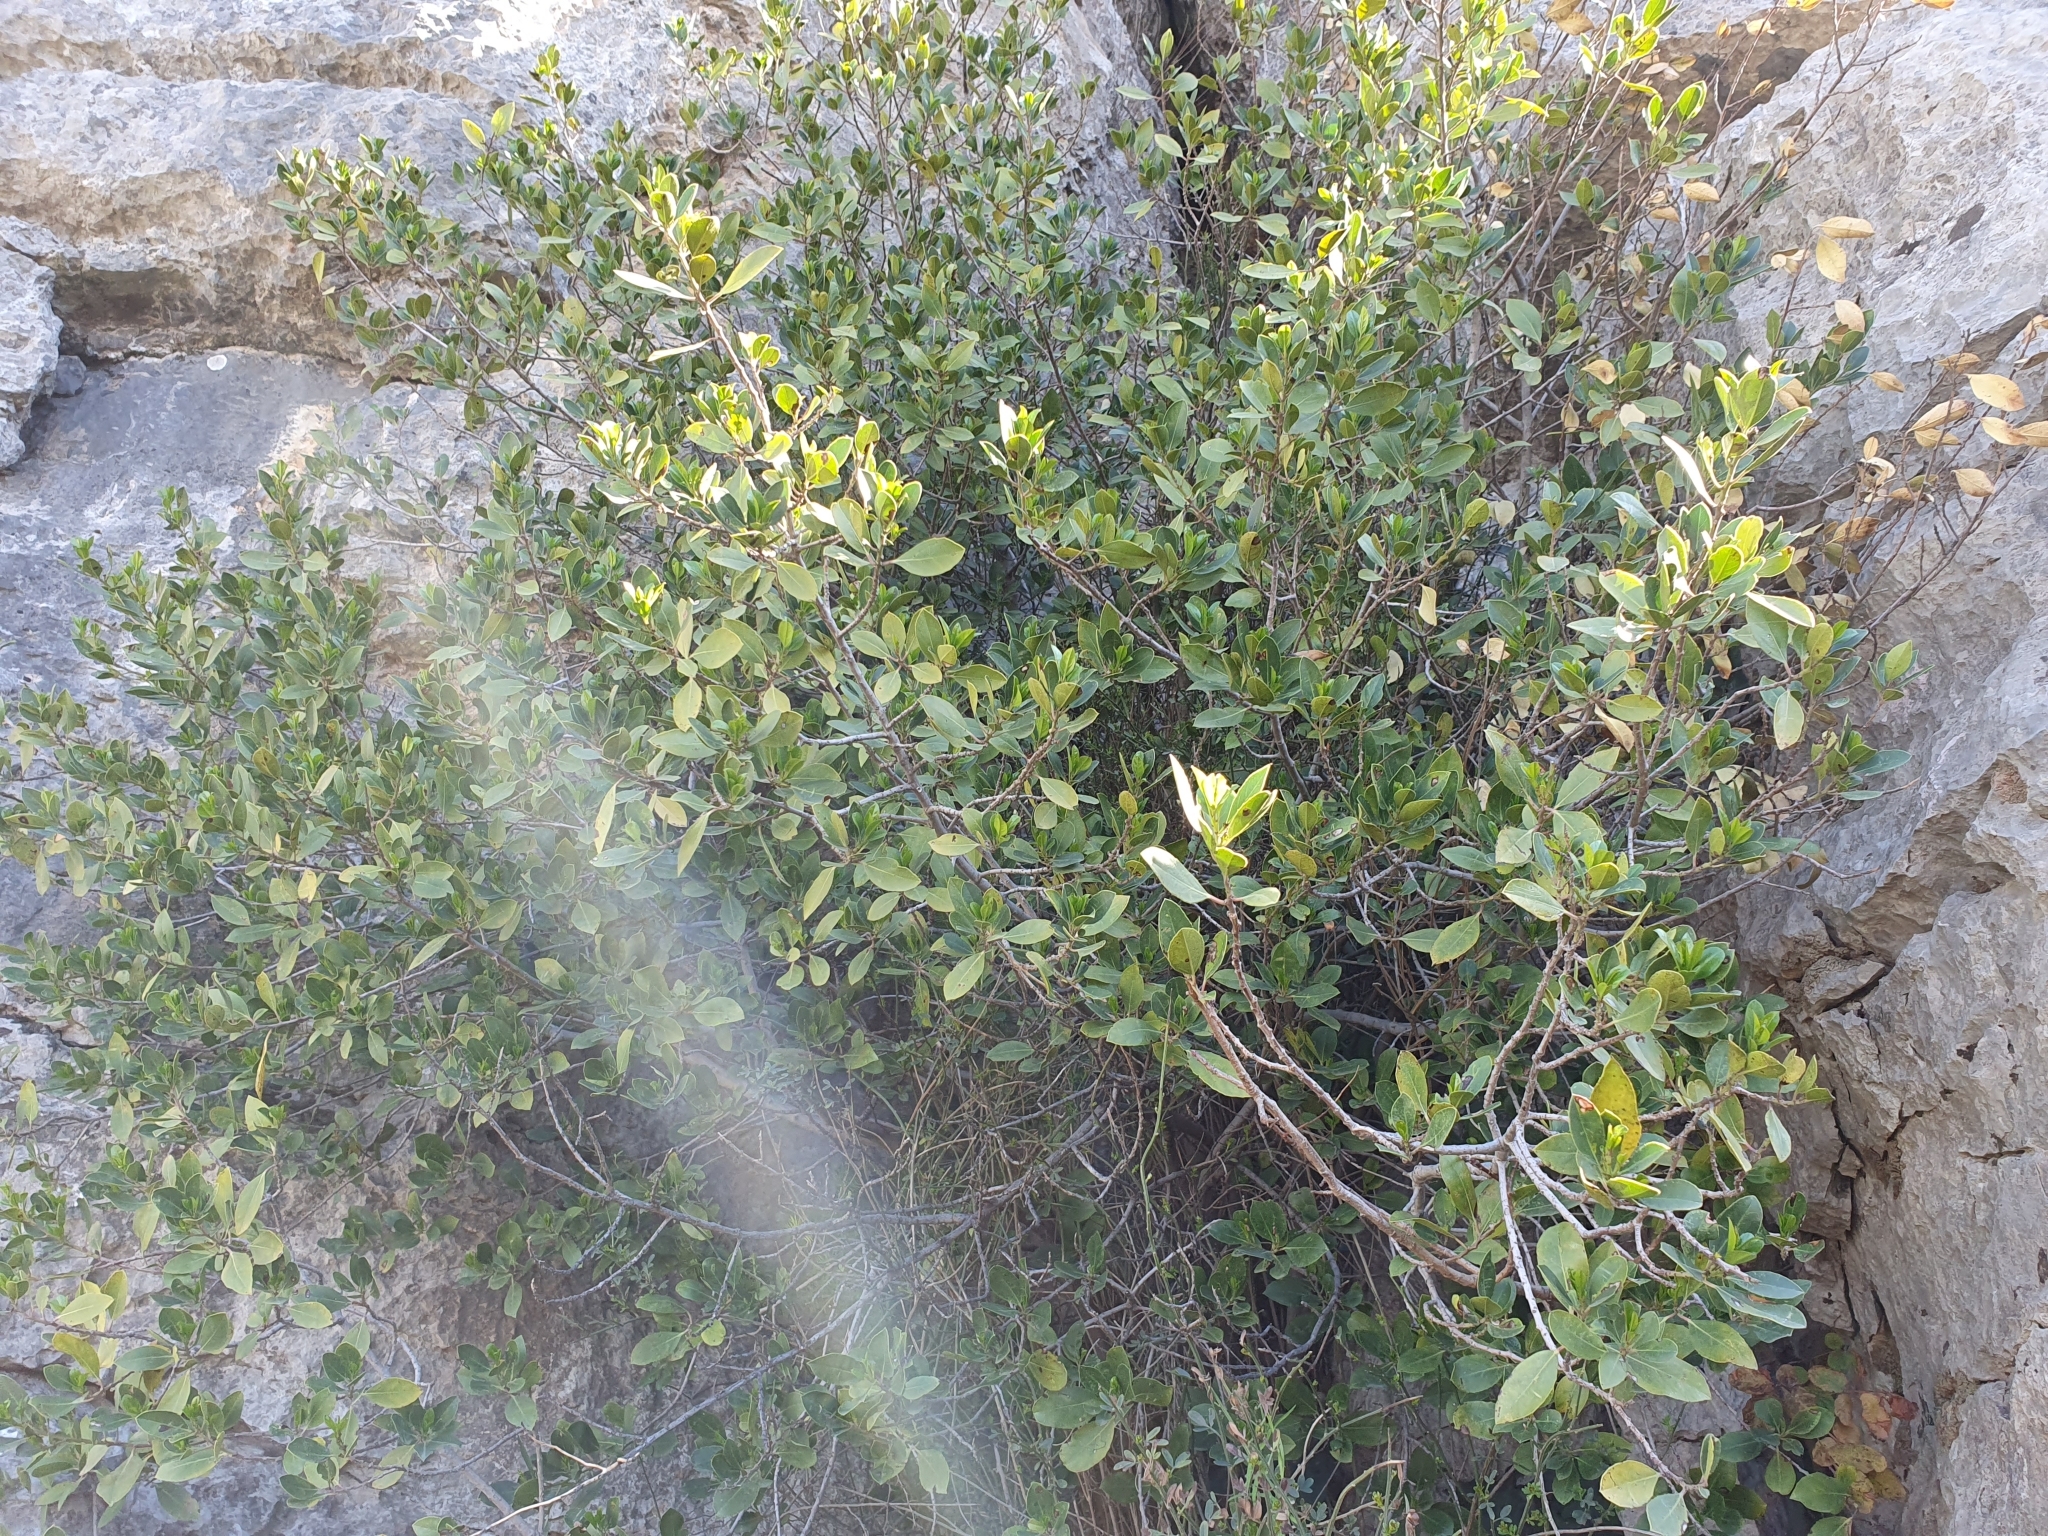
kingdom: Plantae
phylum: Tracheophyta
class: Magnoliopsida
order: Rosales
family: Rhamnaceae
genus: Rhamnus
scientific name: Rhamnus alaternus
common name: Mediterranean buckthorn
